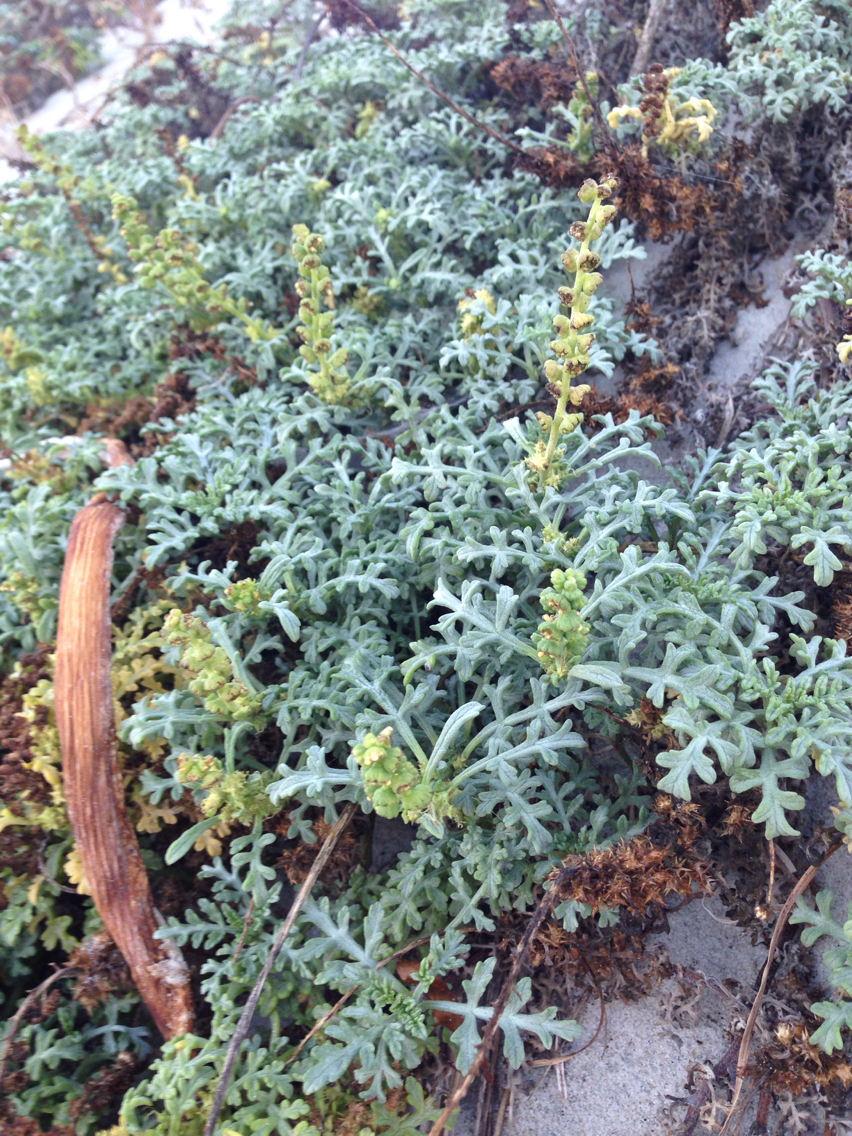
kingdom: Plantae
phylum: Tracheophyta
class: Magnoliopsida
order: Asterales
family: Asteraceae
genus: Ambrosia
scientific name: Ambrosia chamissonis
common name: Beachbur
